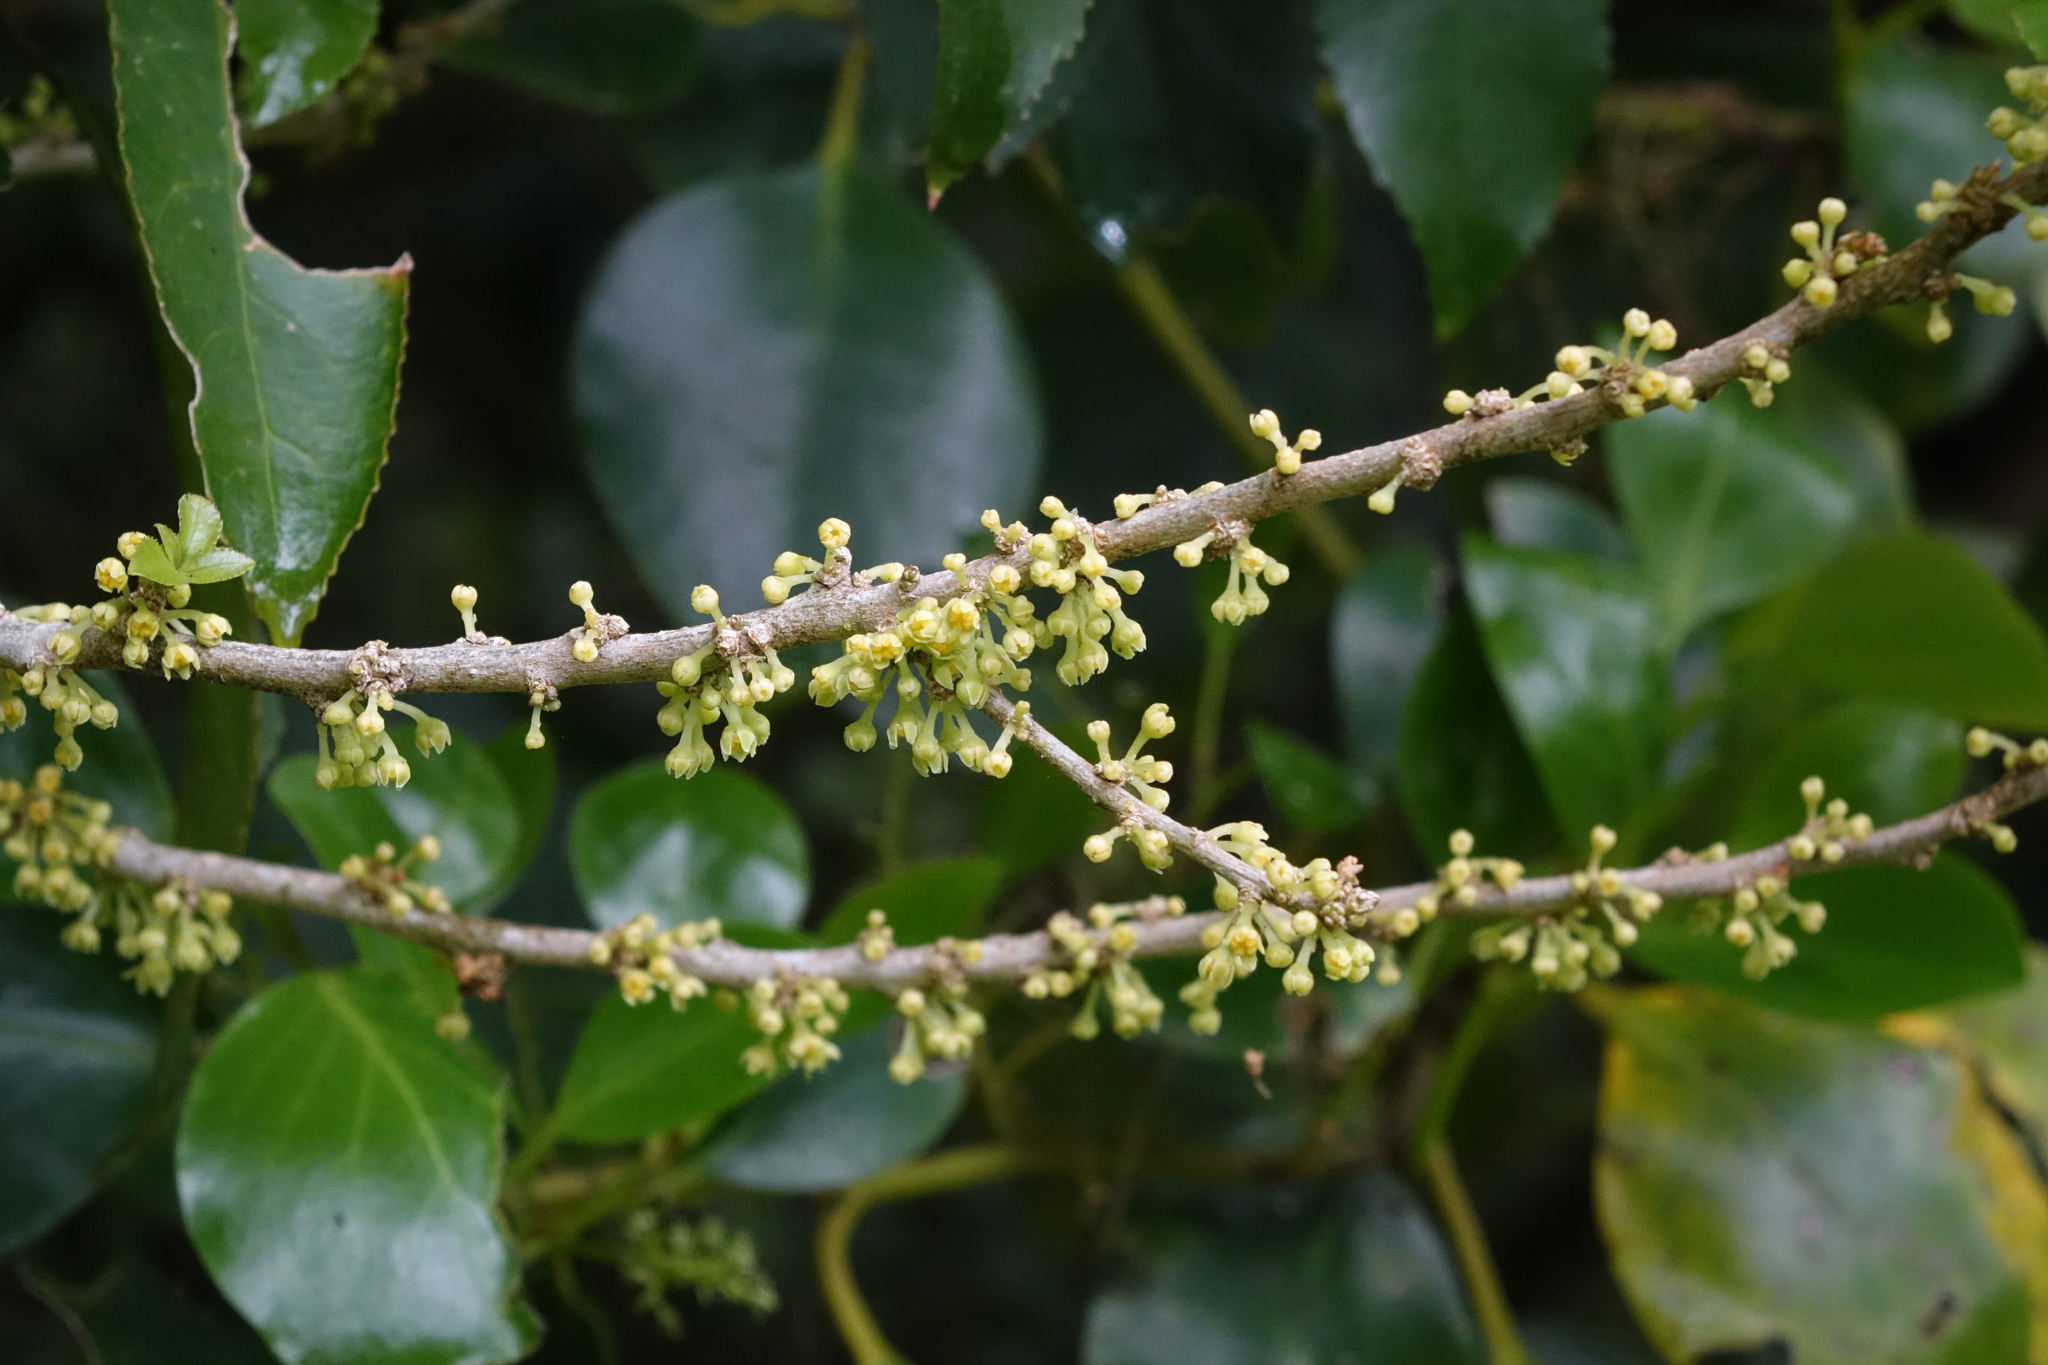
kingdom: Plantae
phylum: Tracheophyta
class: Magnoliopsida
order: Malpighiales
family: Violaceae
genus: Melicytus
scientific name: Melicytus ramiflorus
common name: Mahoe
